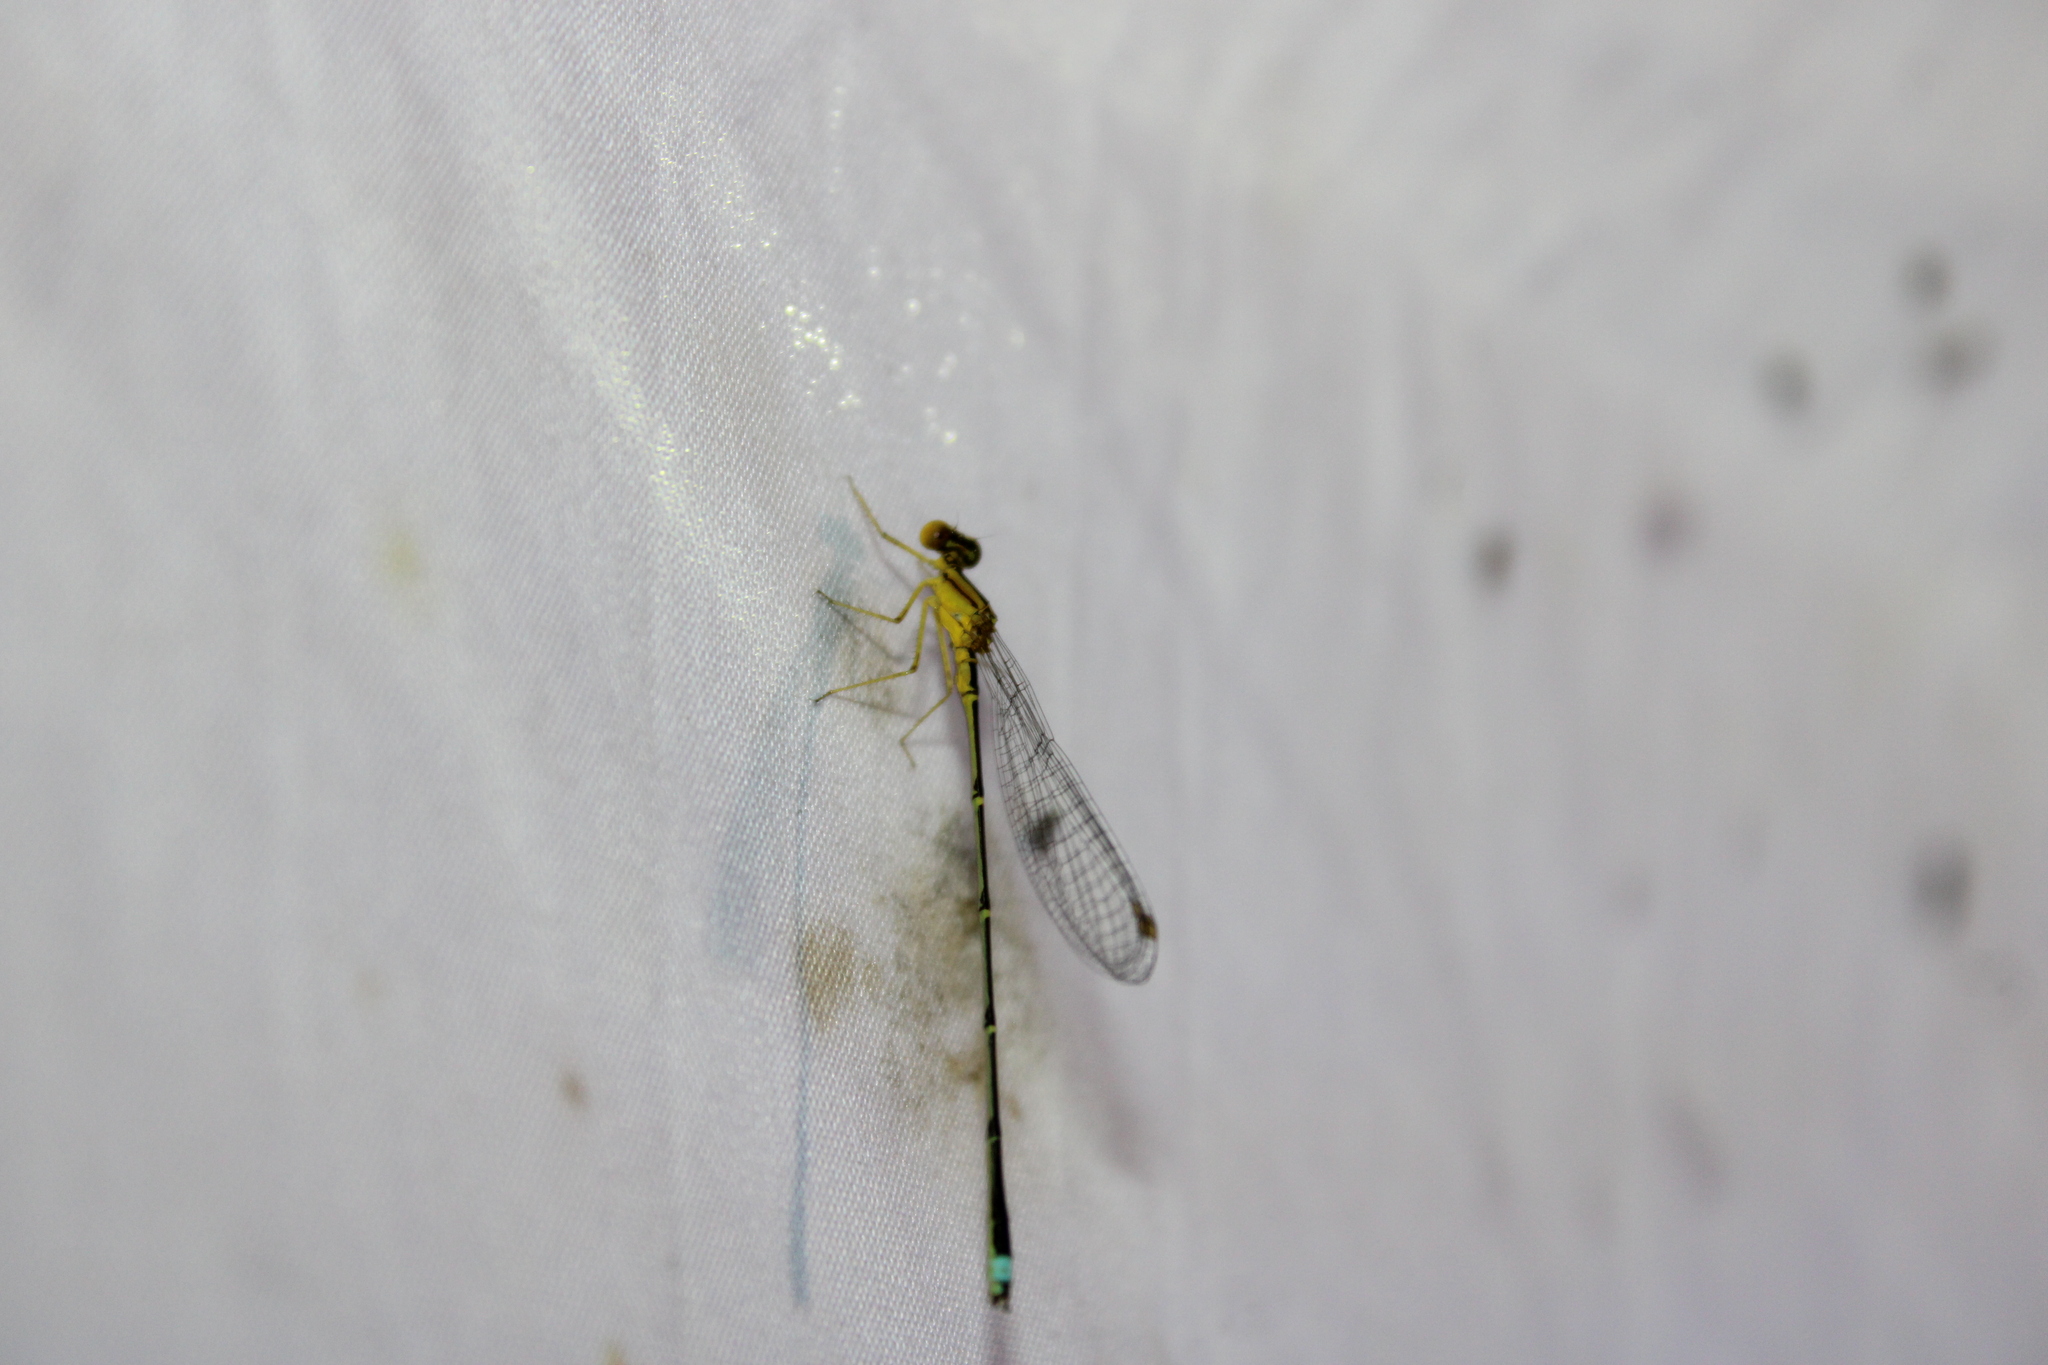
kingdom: Animalia
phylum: Arthropoda
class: Insecta
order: Odonata
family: Coenagrionidae
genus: Enallagma
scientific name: Enallagma vesperum
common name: Vesper bluet
